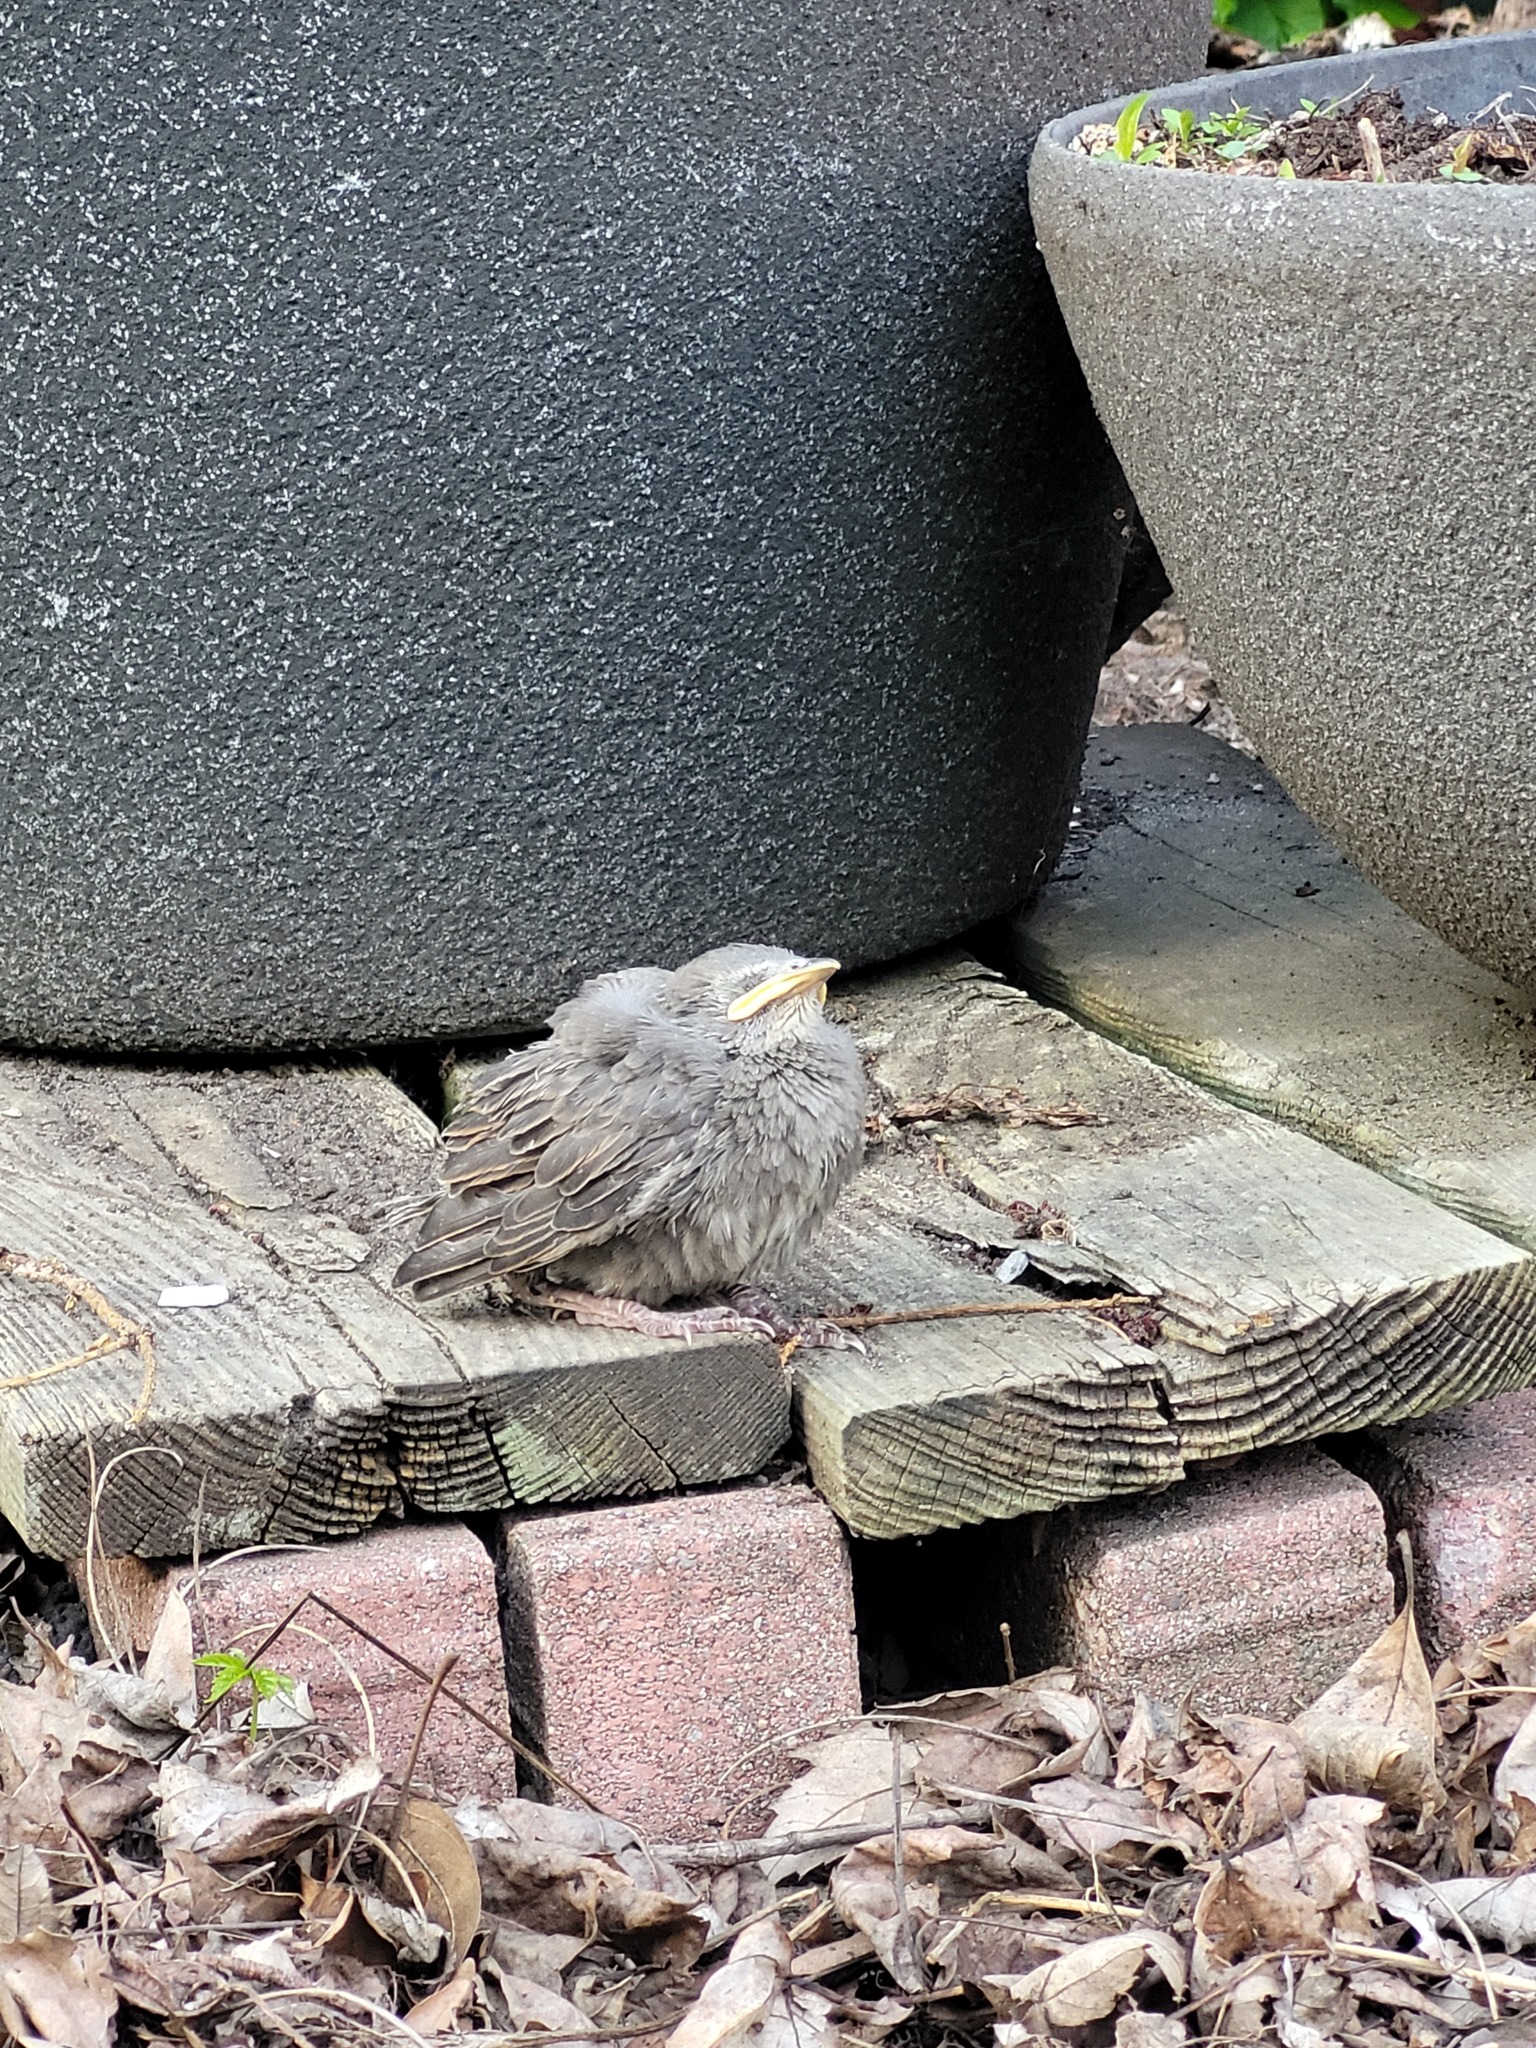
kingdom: Animalia
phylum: Chordata
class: Aves
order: Passeriformes
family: Turdidae
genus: Turdus
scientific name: Turdus migratorius
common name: American robin
